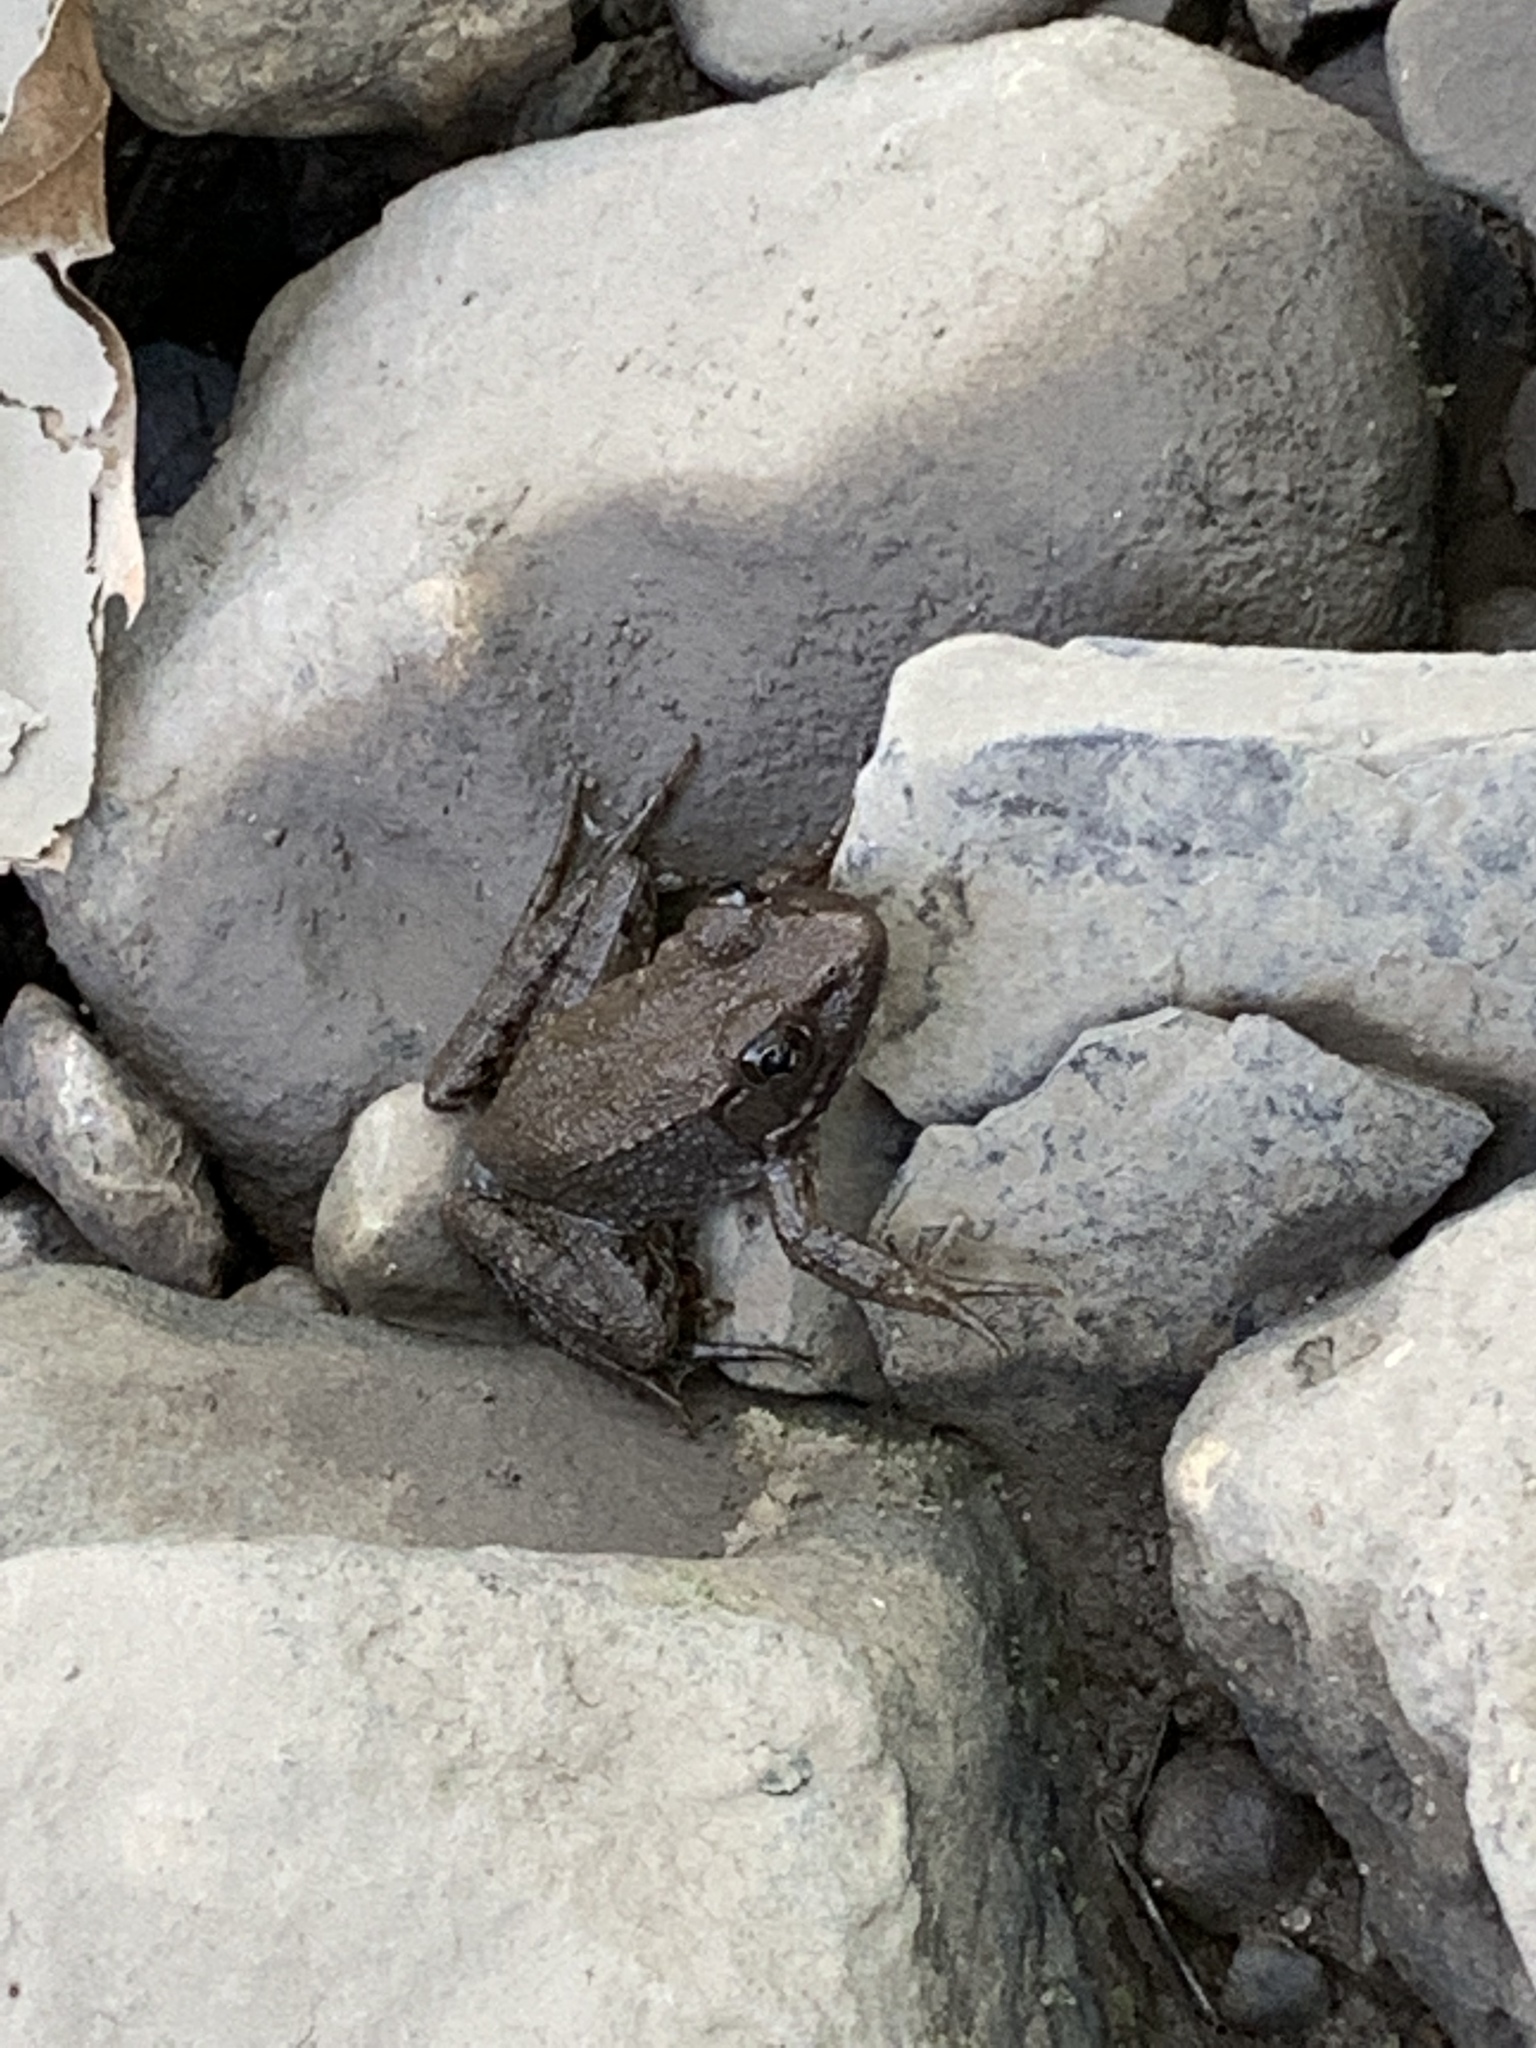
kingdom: Animalia
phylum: Chordata
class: Amphibia
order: Anura
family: Ranidae
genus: Lithobates
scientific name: Lithobates clamitans
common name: Green frog
